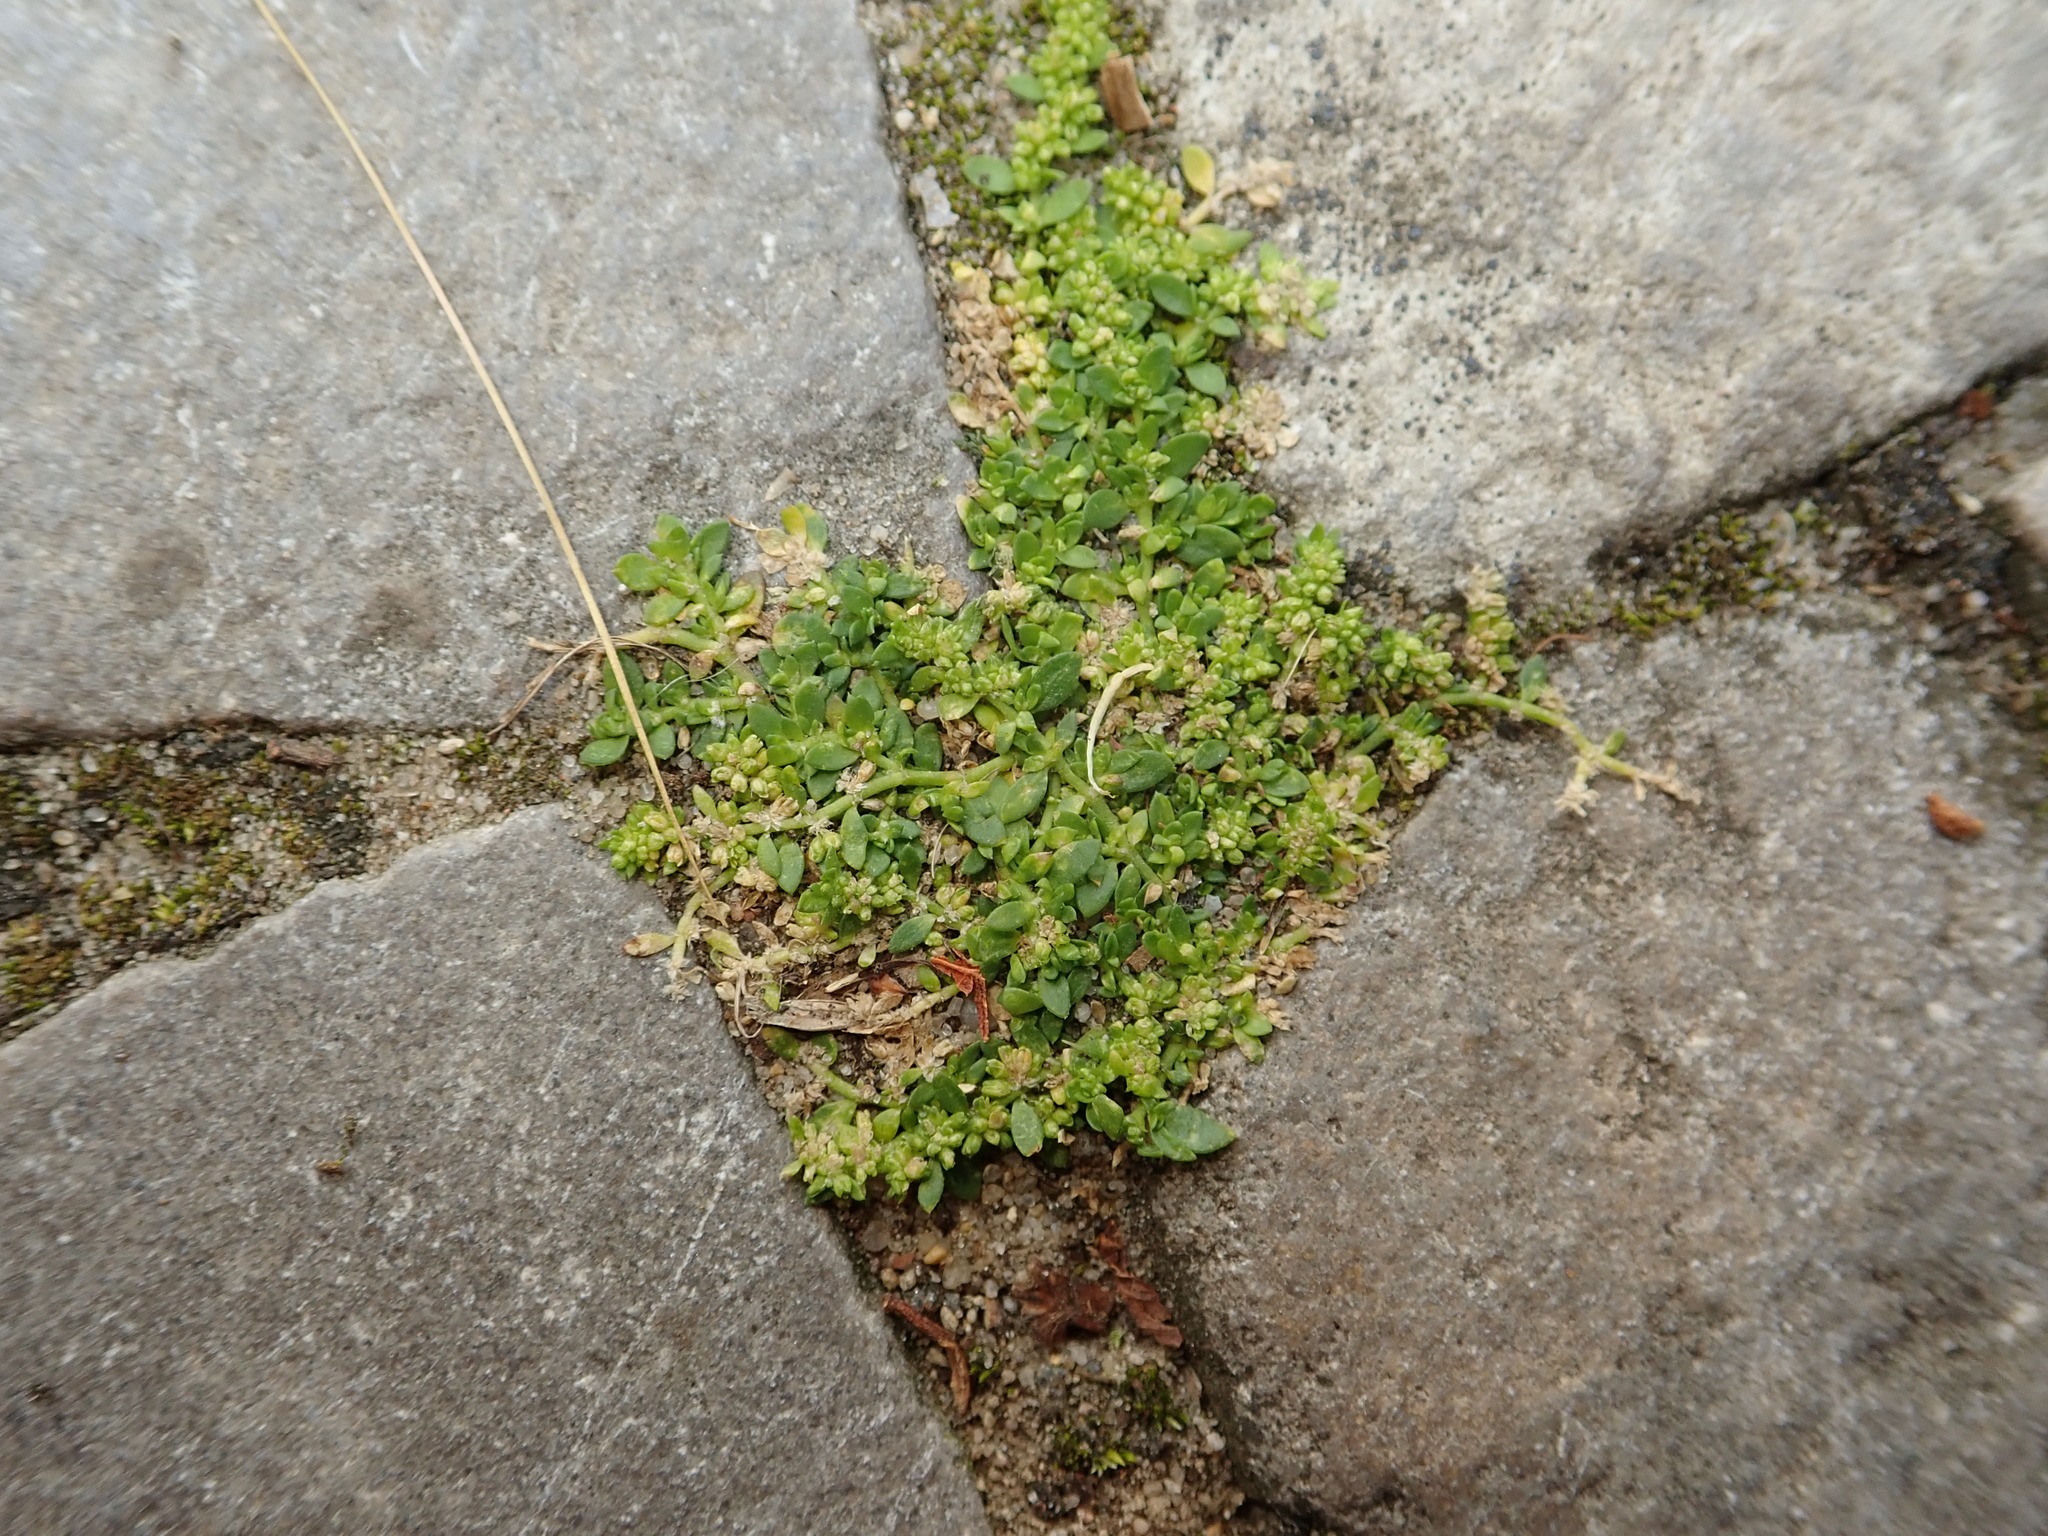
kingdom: Plantae
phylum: Tracheophyta
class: Magnoliopsida
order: Caryophyllales
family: Caryophyllaceae
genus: Herniaria
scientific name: Herniaria glabra
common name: Smooth rupturewort
